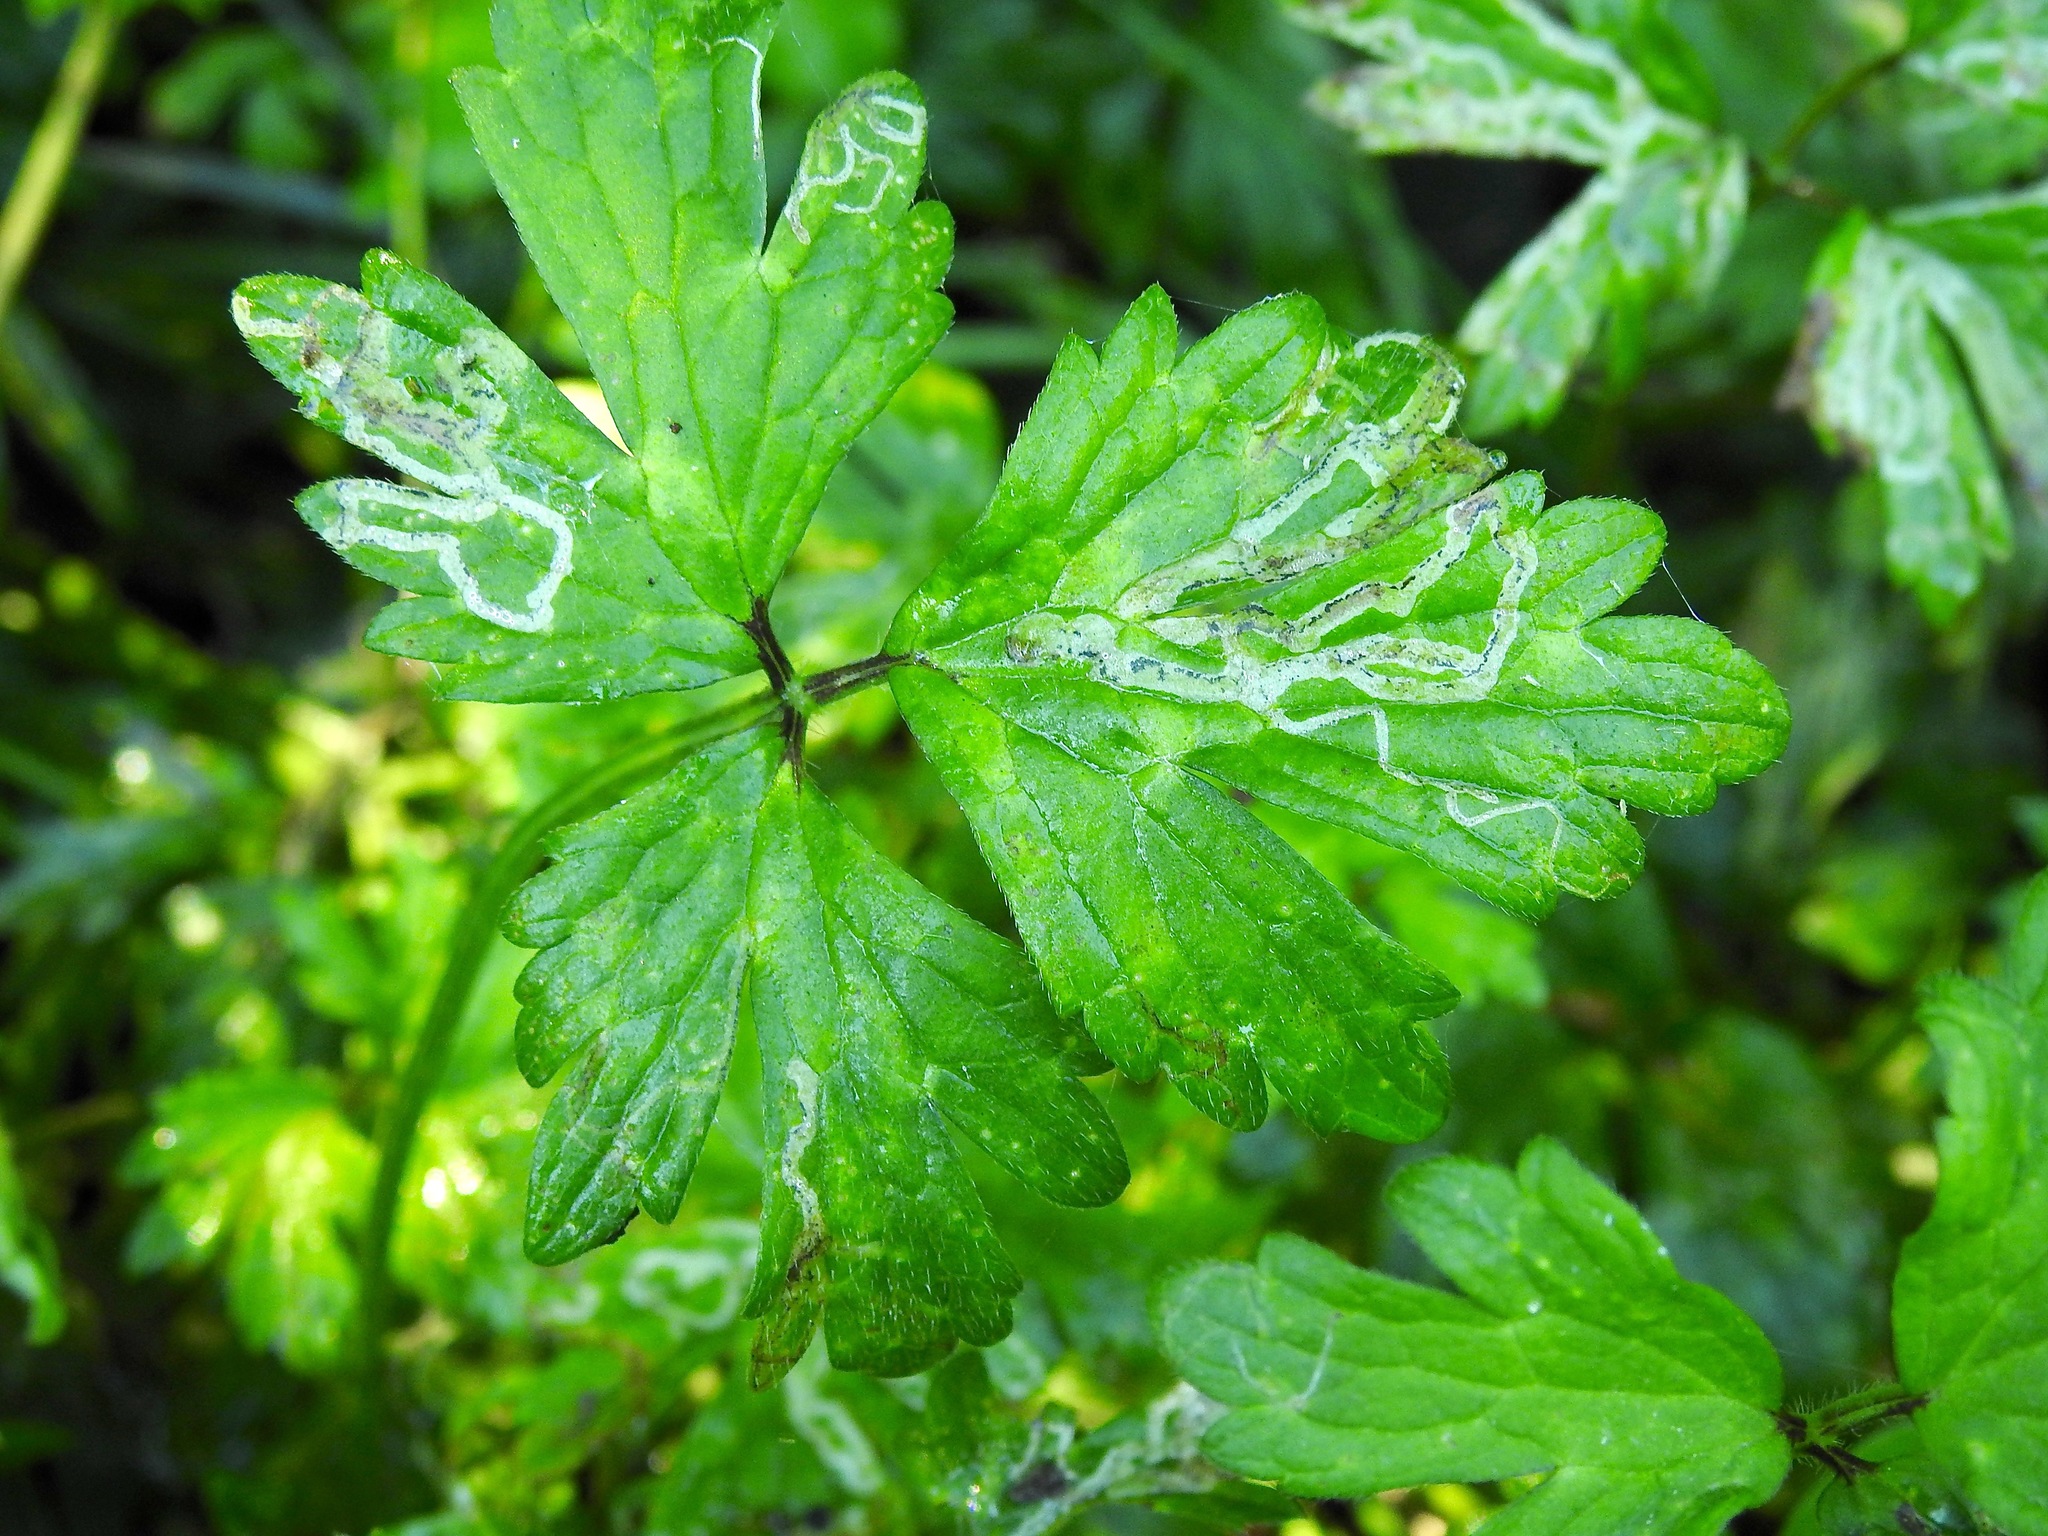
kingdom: Animalia
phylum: Arthropoda
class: Insecta
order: Diptera
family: Agromyzidae
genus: Phytomyza
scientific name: Phytomyza ranunculi
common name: Leaf-miner fly
